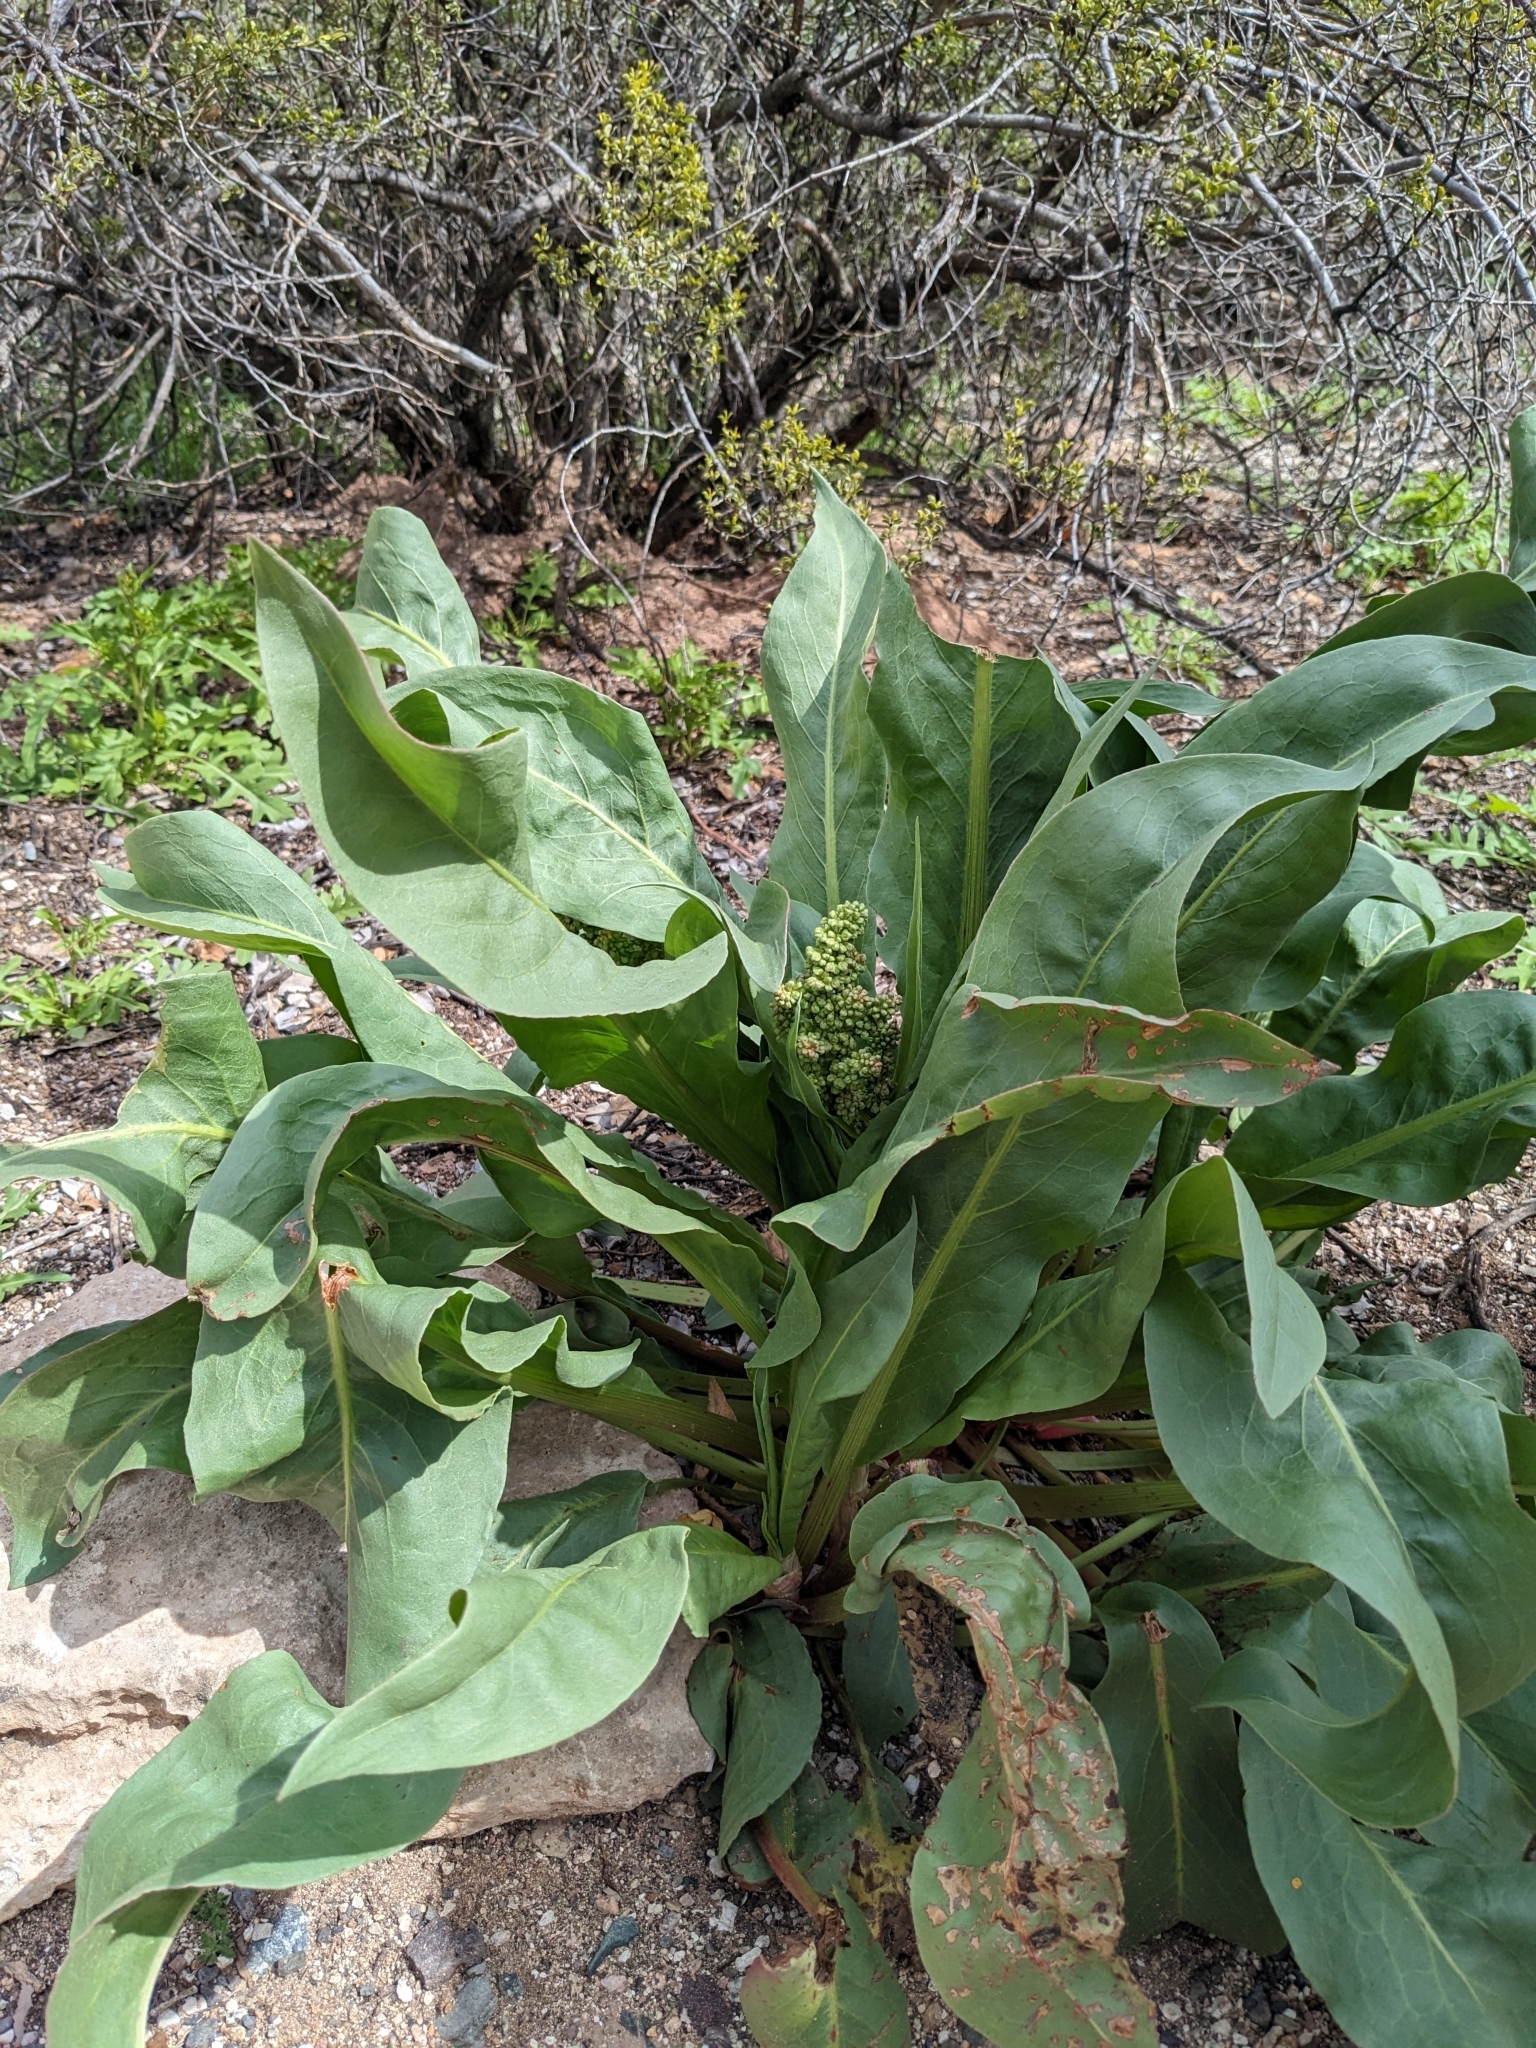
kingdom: Plantae
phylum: Tracheophyta
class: Magnoliopsida
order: Caryophyllales
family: Polygonaceae
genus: Rumex
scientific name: Rumex hymenosepalus
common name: Ganagra
